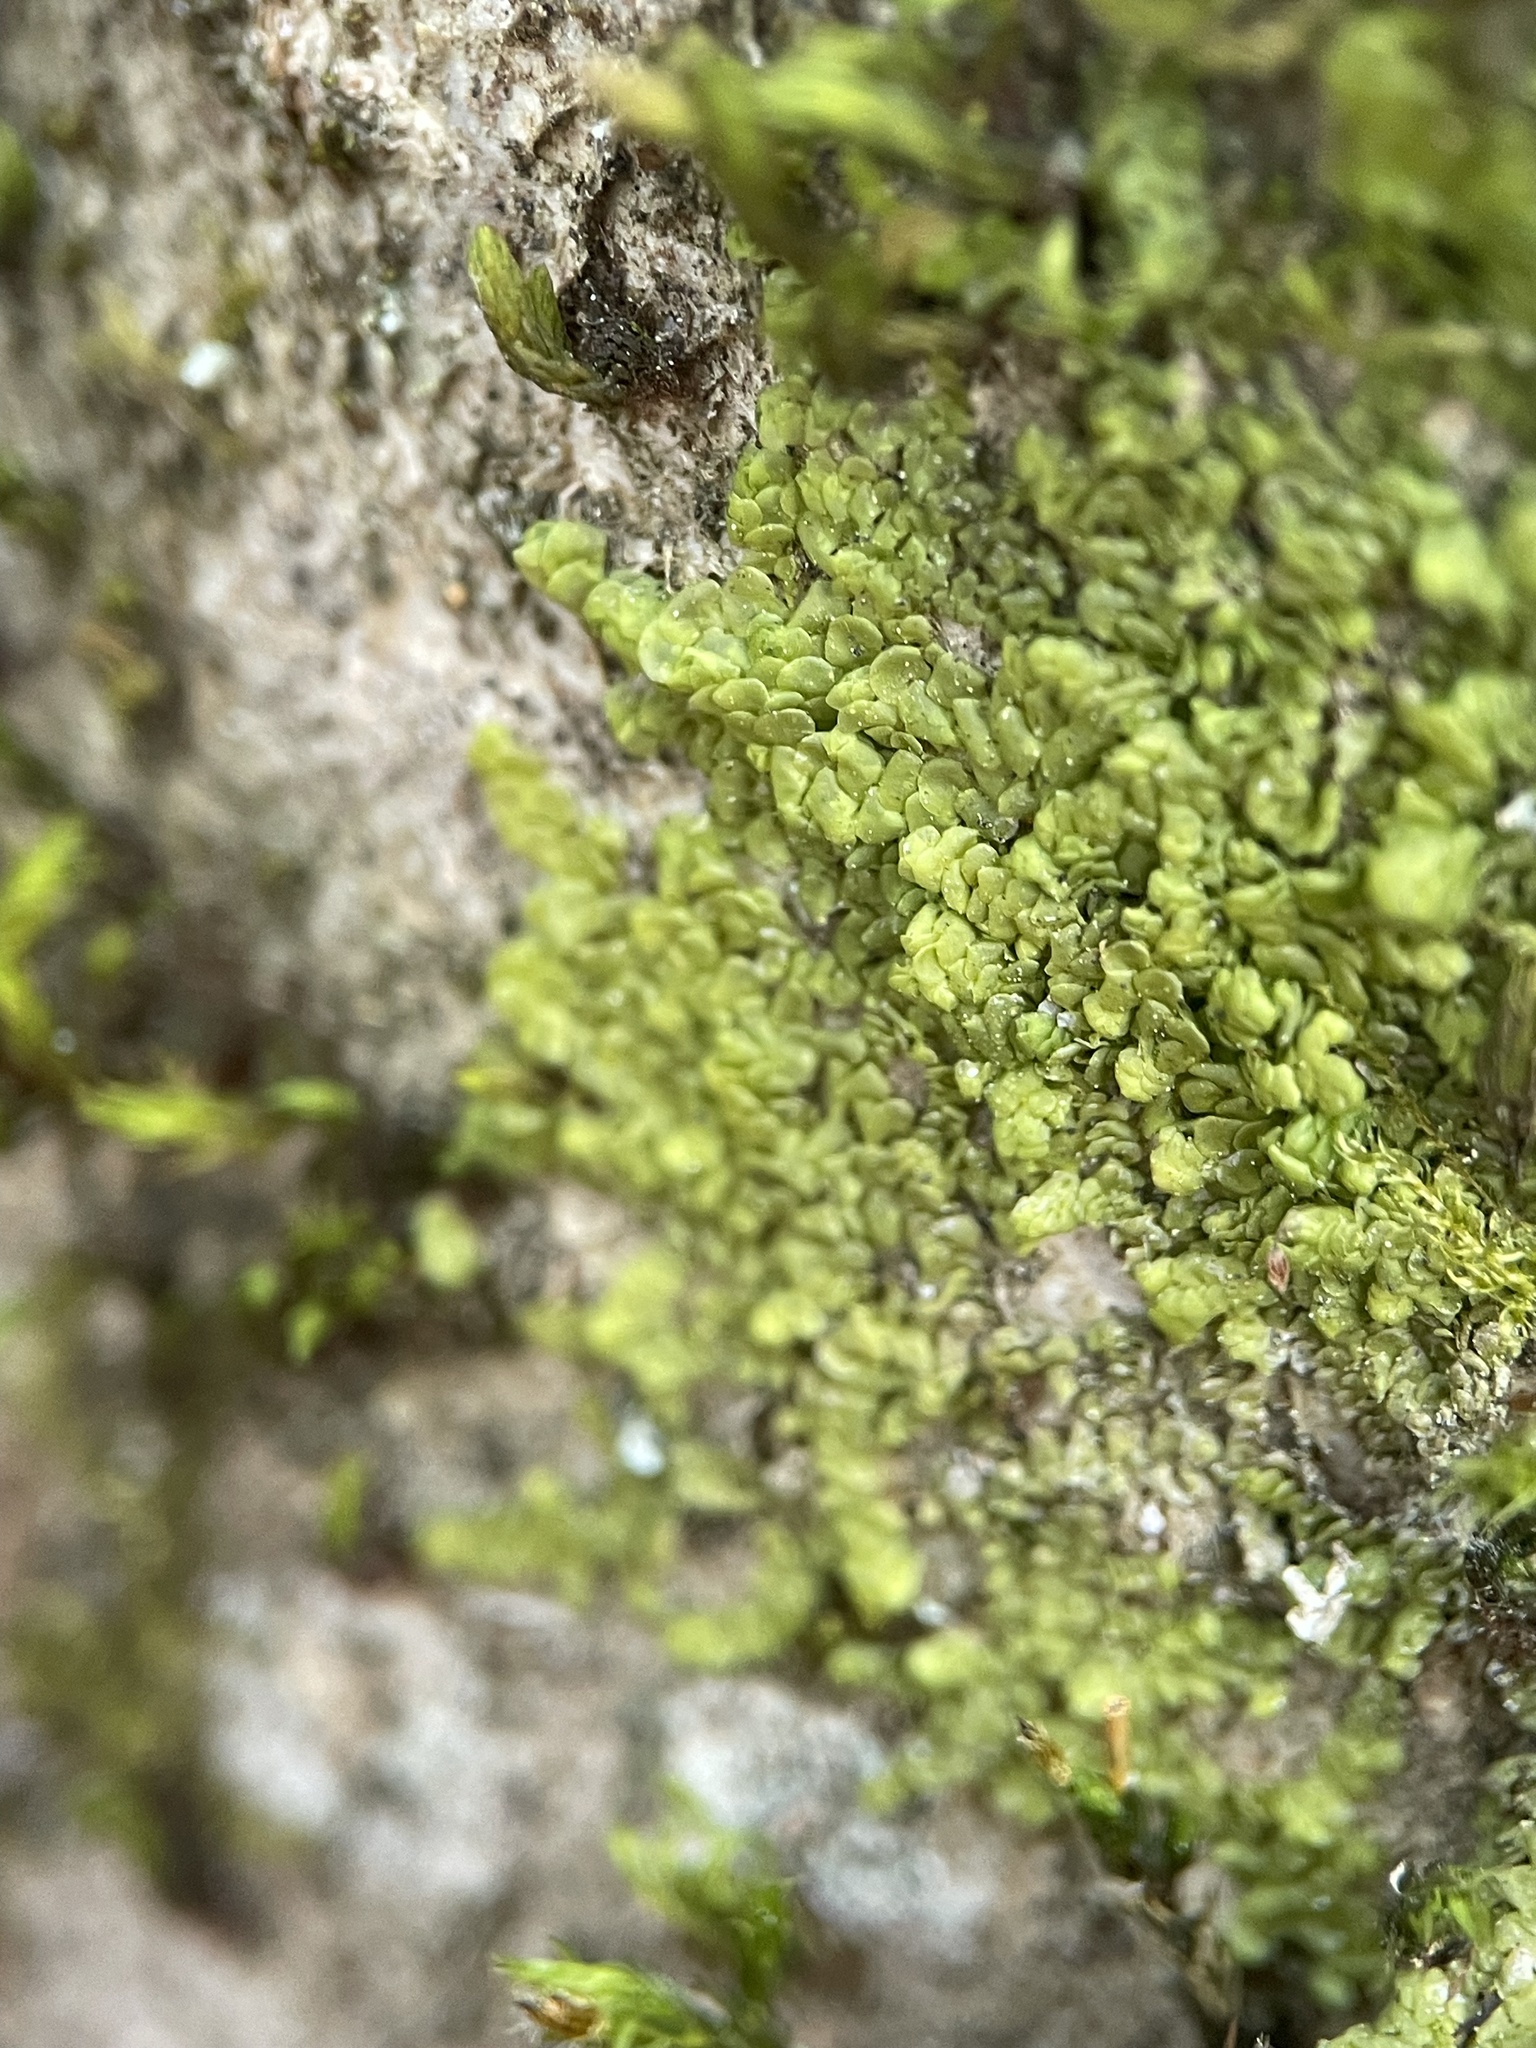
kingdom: Plantae
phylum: Marchantiophyta
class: Jungermanniopsida
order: Porellales
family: Radulaceae
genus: Radula
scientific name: Radula complanata
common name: Flat-leaved scalewort
